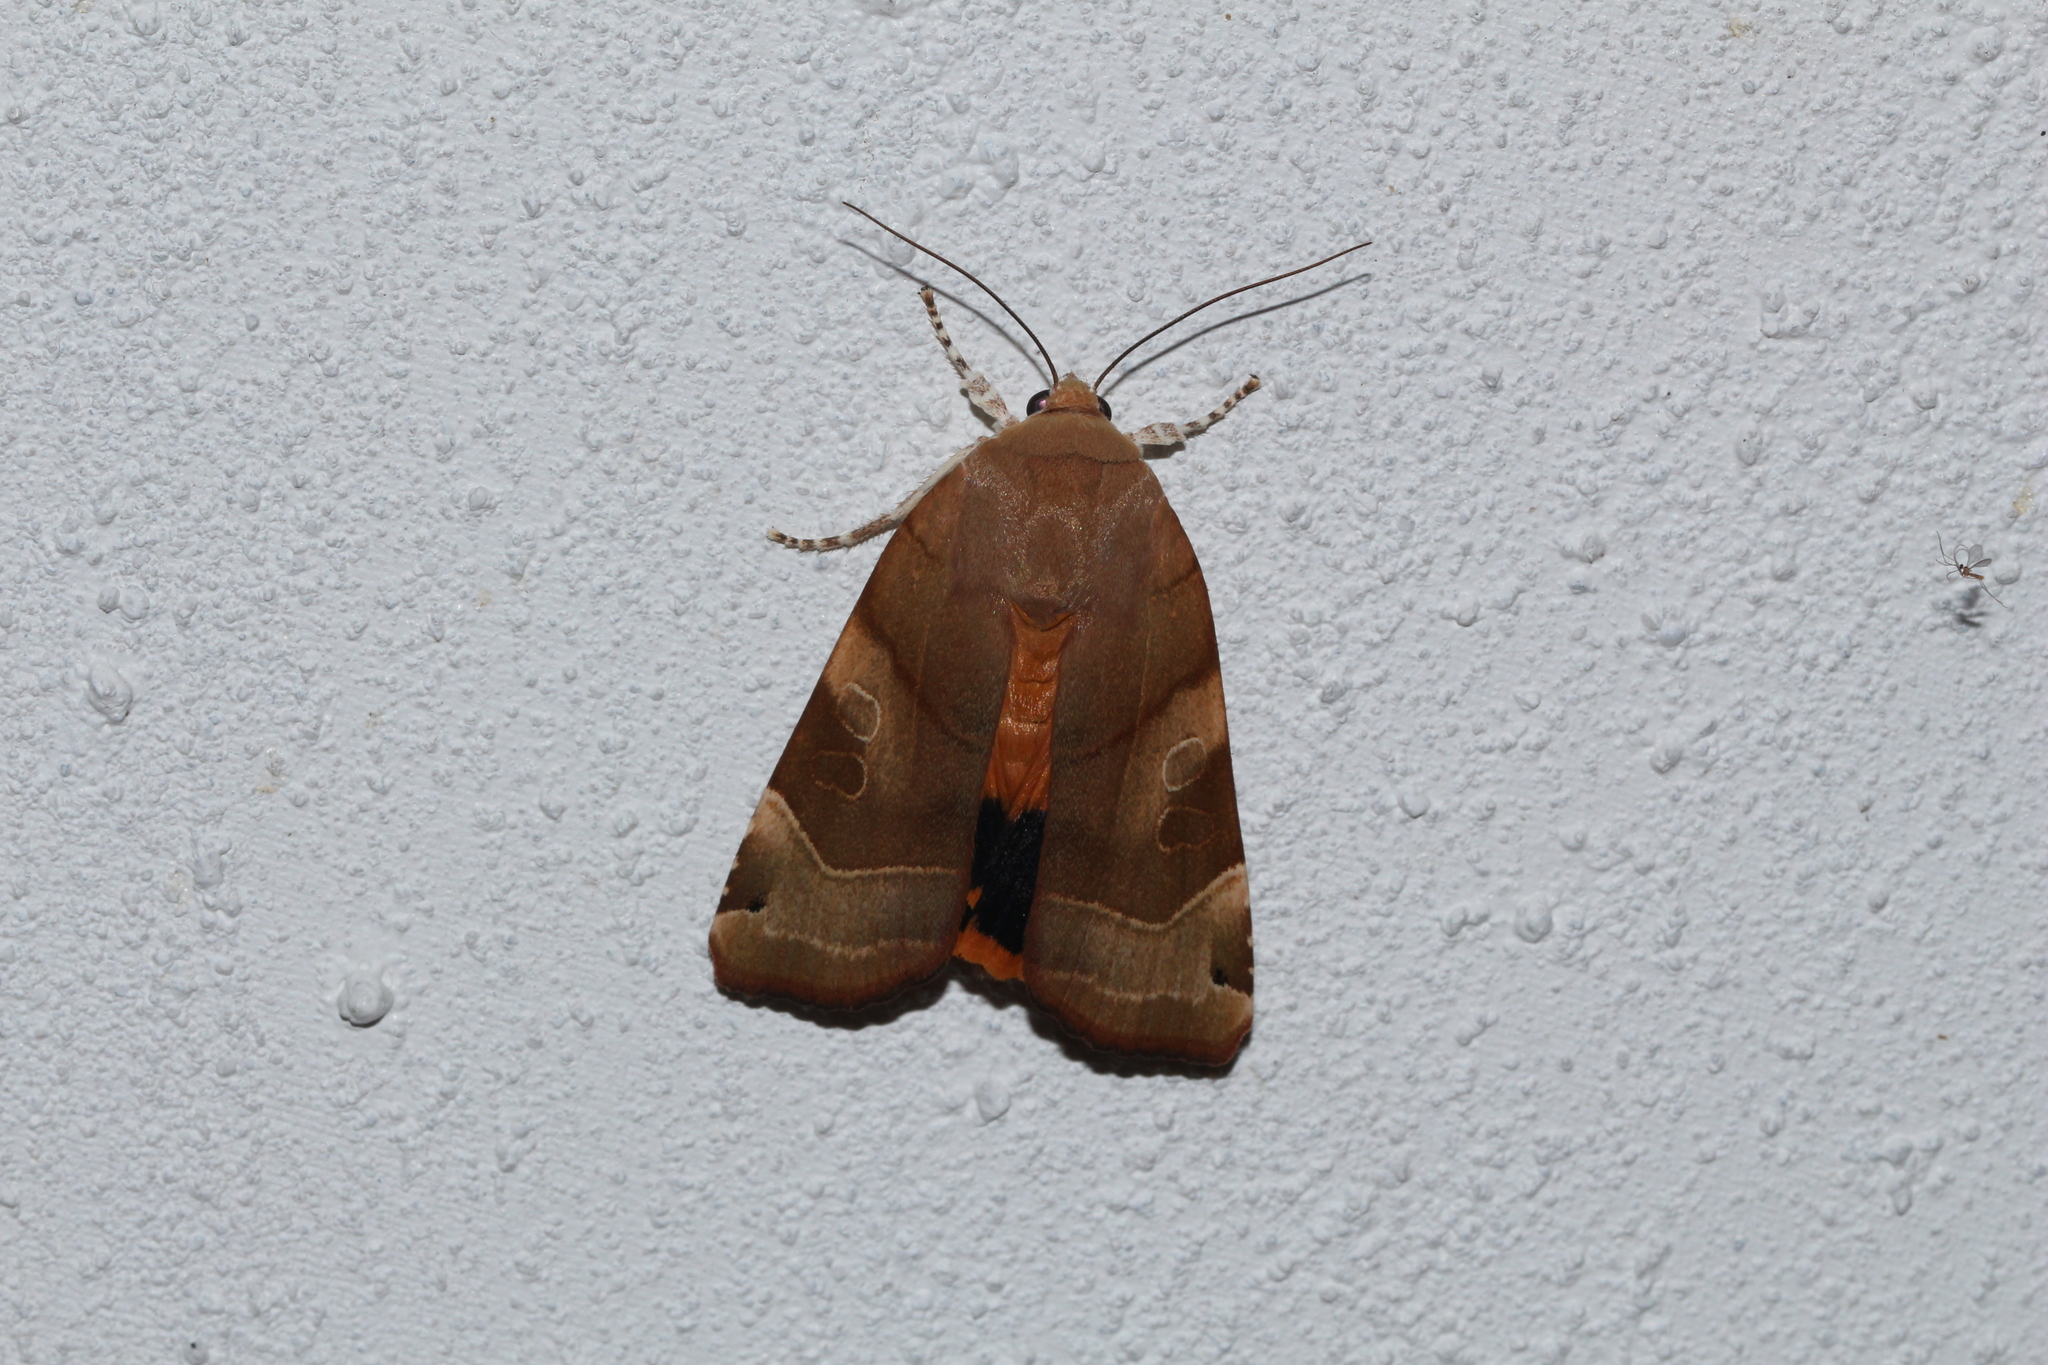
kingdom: Animalia
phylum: Arthropoda
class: Insecta
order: Lepidoptera
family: Noctuidae
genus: Noctua
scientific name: Noctua fimbriata
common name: Broad-bordered yellow underwing
